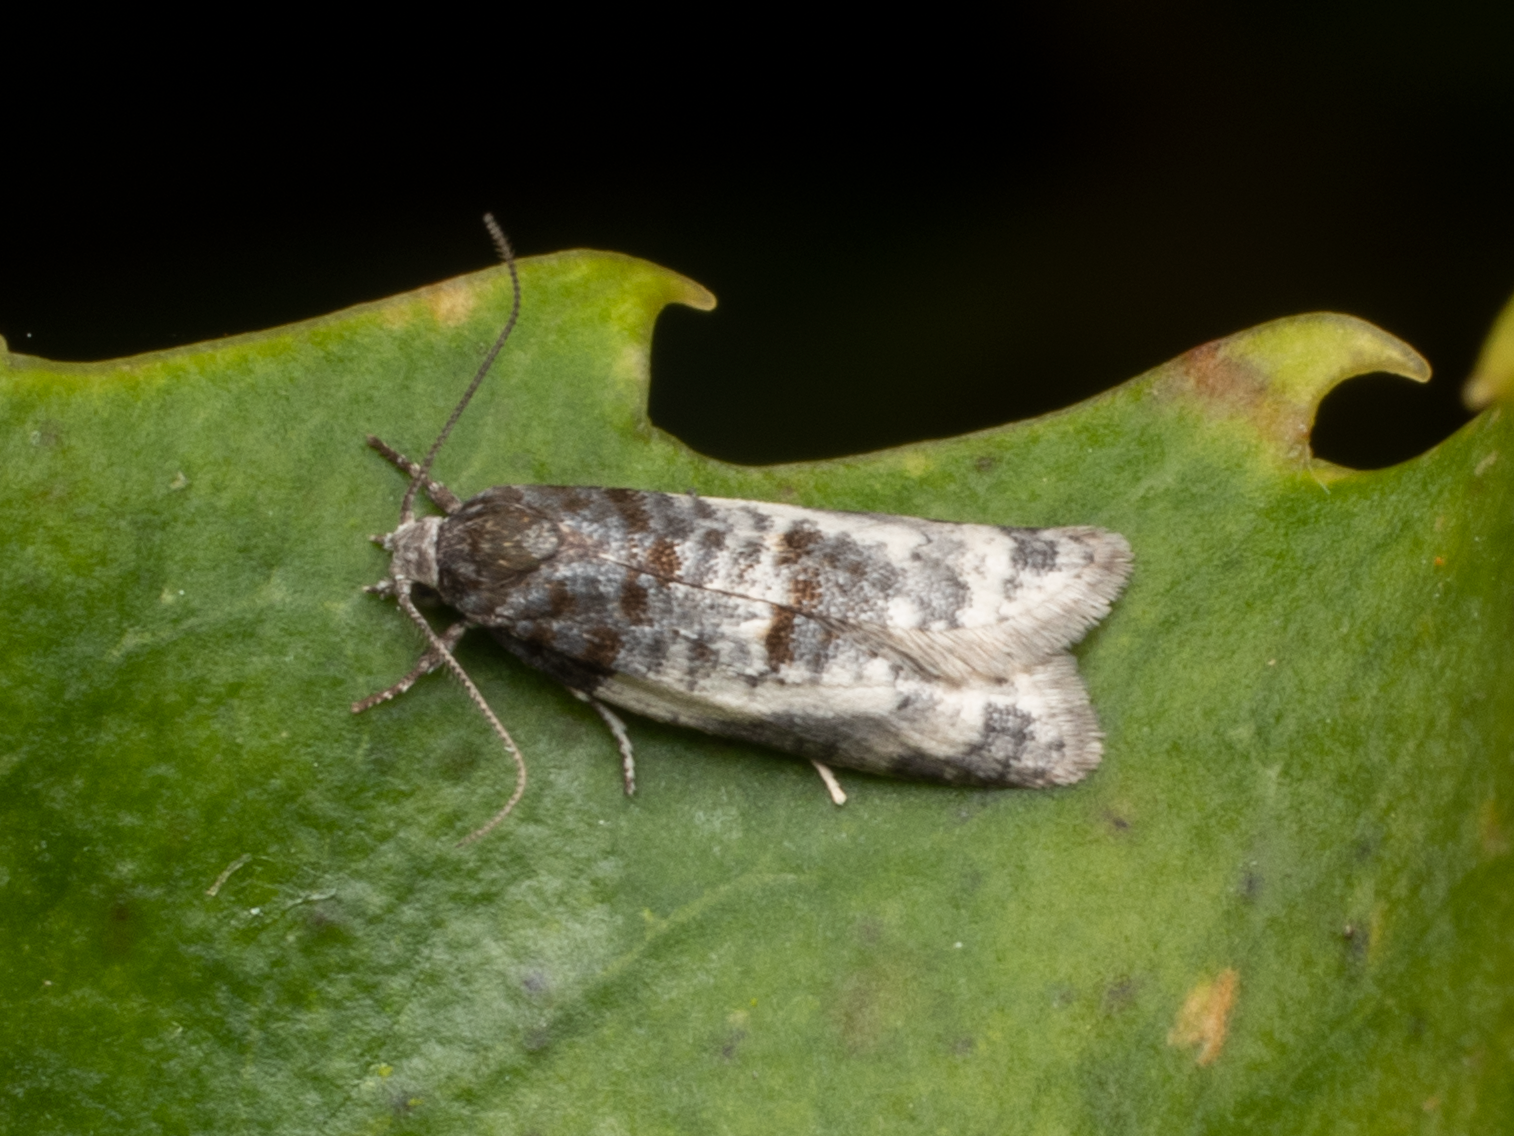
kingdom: Animalia
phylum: Arthropoda
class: Insecta
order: Lepidoptera
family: Tortricidae
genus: Prothelymna
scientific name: Prothelymna niphostrota
